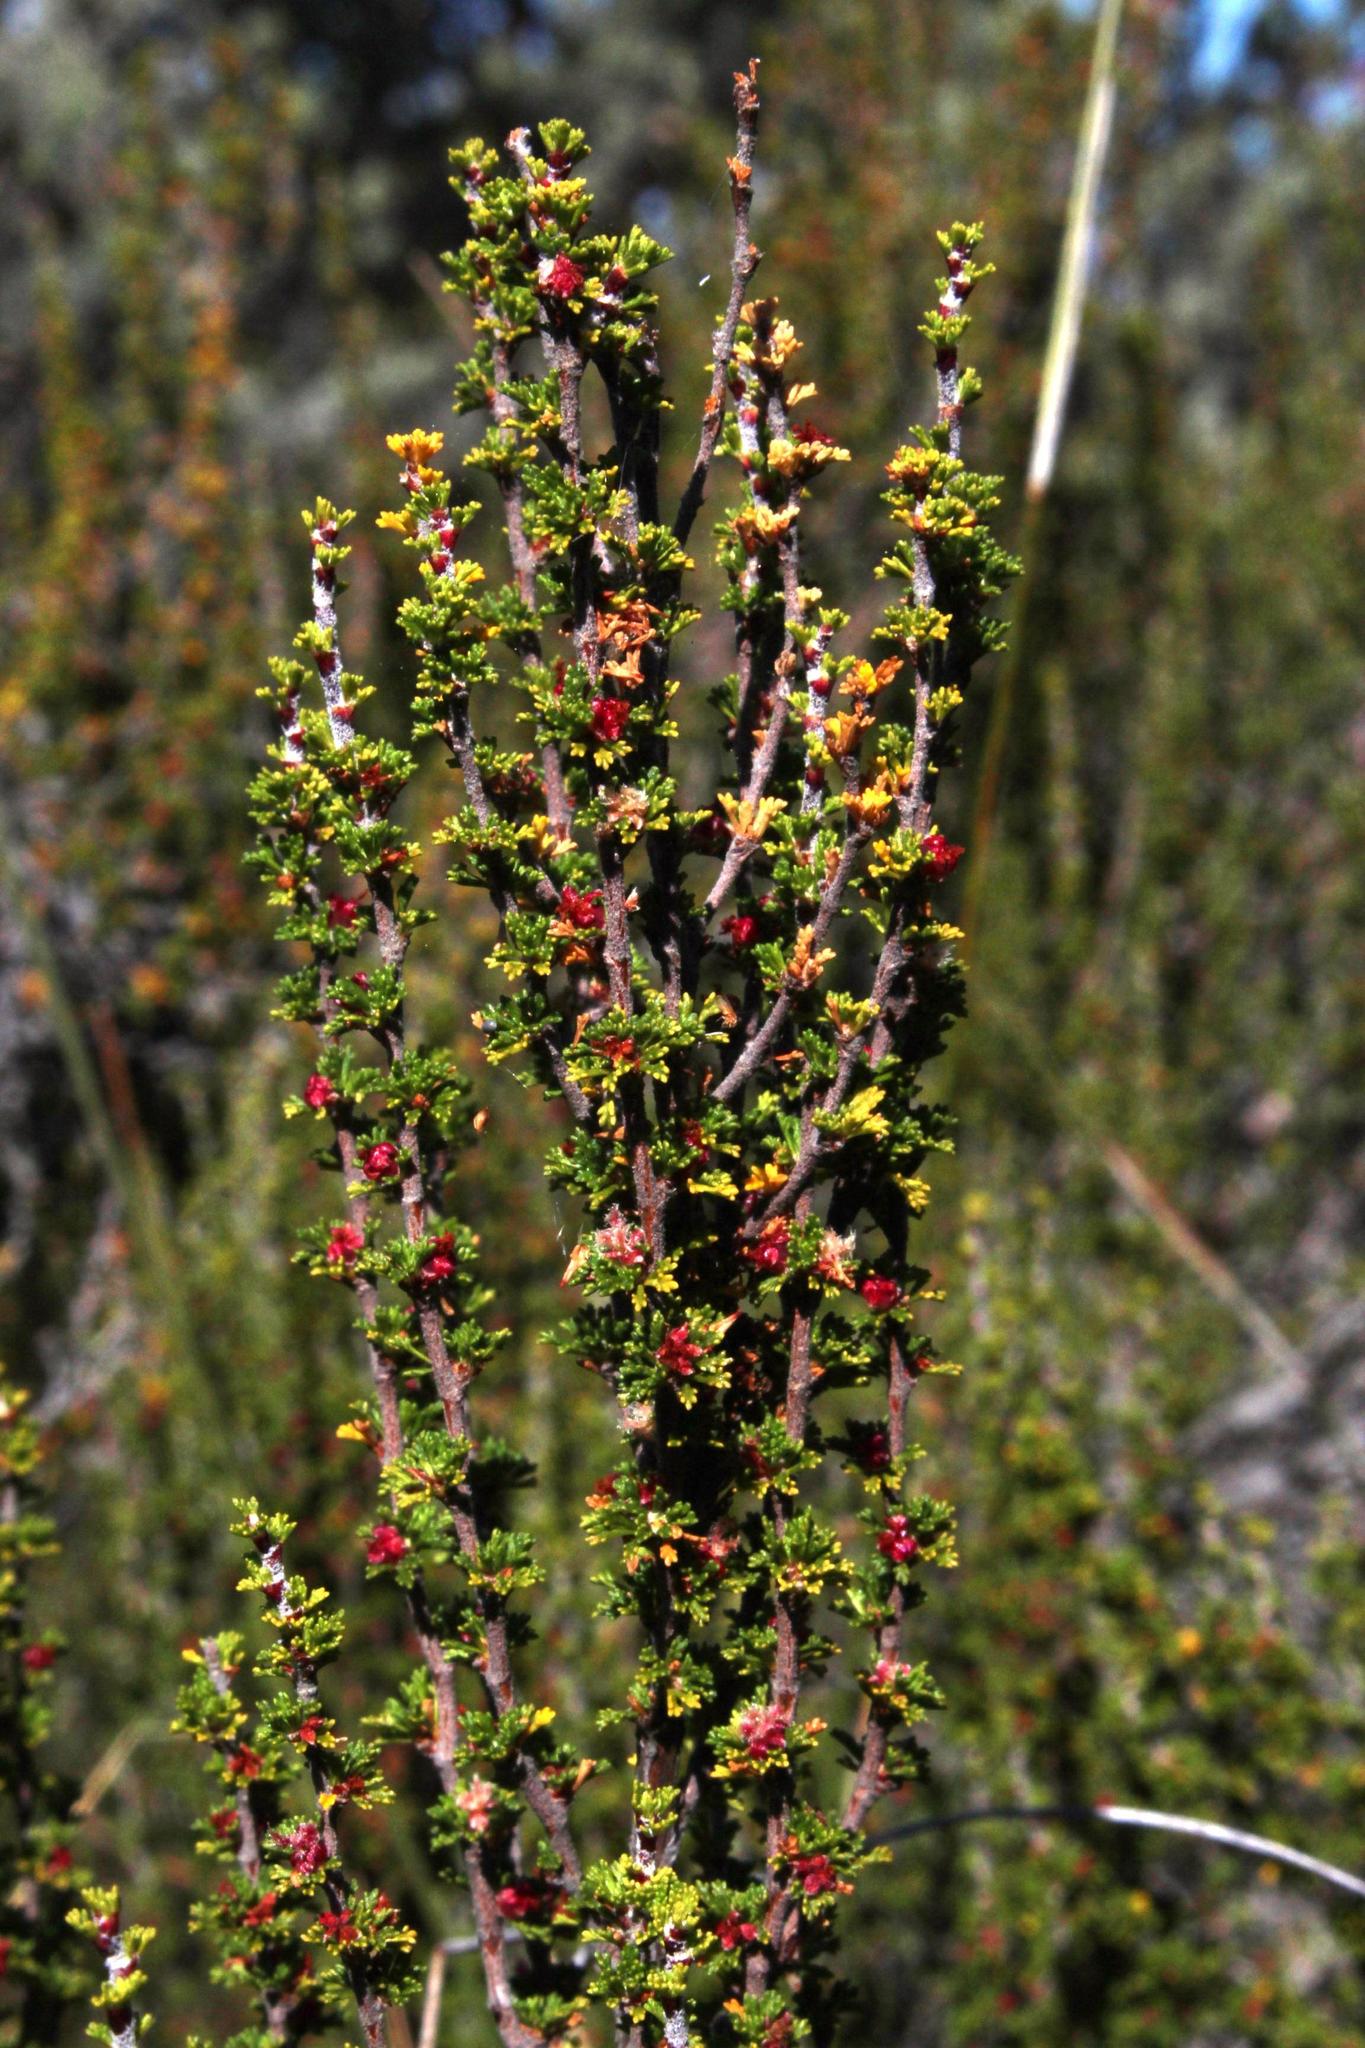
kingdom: Plantae
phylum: Tracheophyta
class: Magnoliopsida
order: Rosales
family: Rosaceae
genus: Cliffortia
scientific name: Cliffortia micrantha
